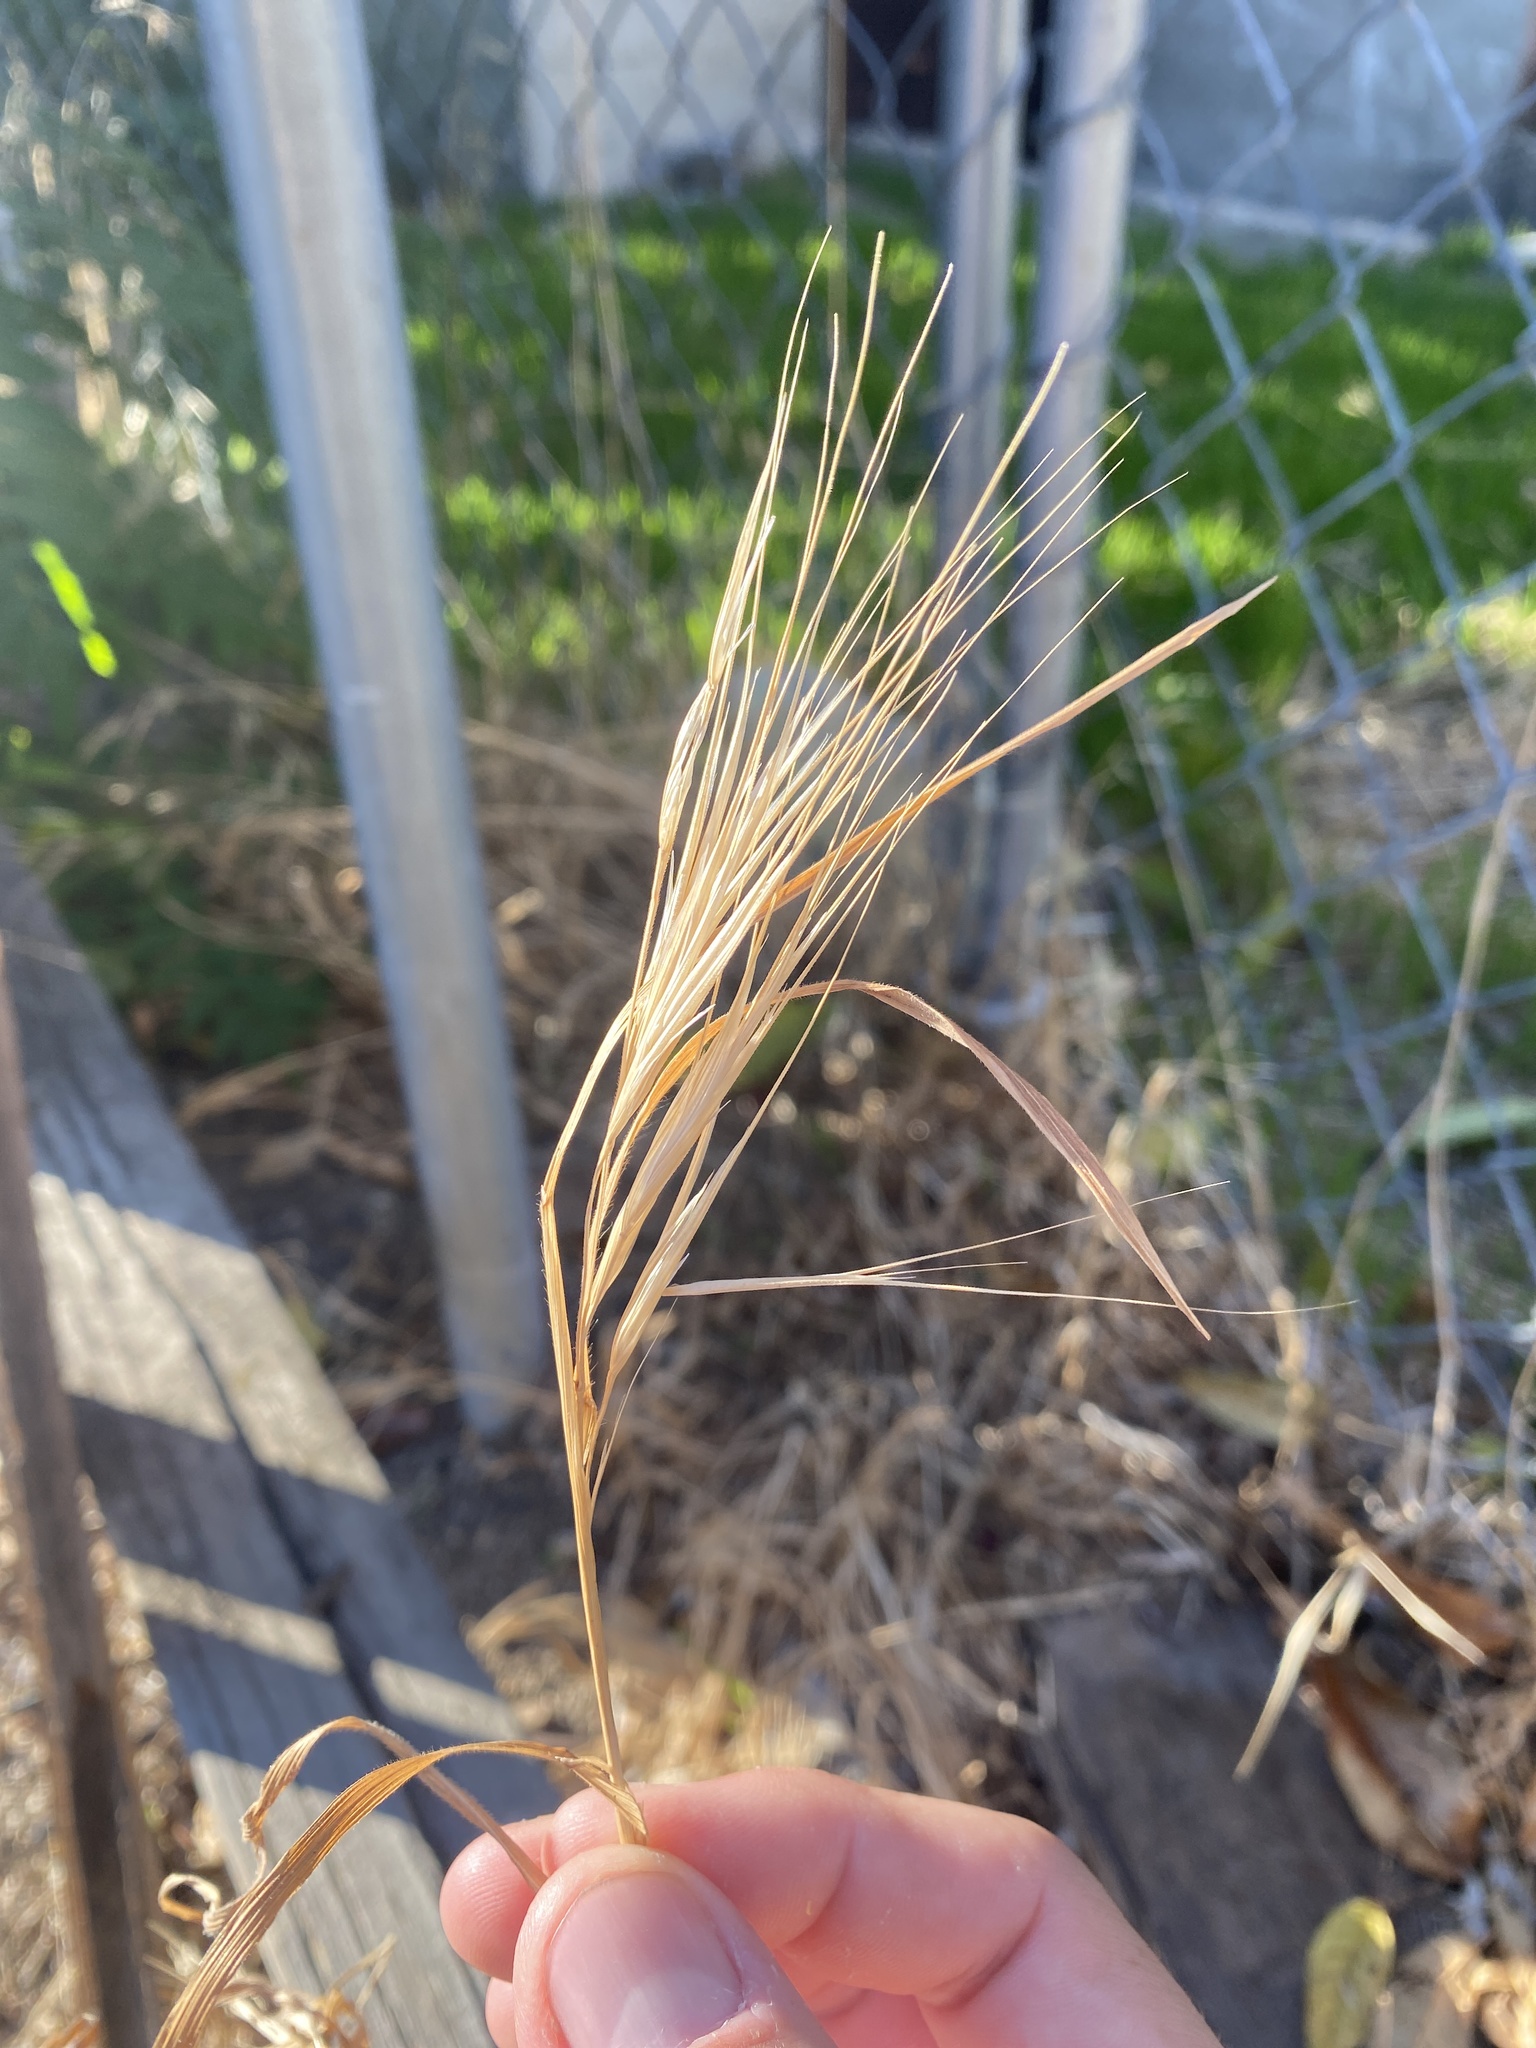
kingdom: Plantae
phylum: Tracheophyta
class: Liliopsida
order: Poales
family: Poaceae
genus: Bromus
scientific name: Bromus diandrus
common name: Ripgut brome
